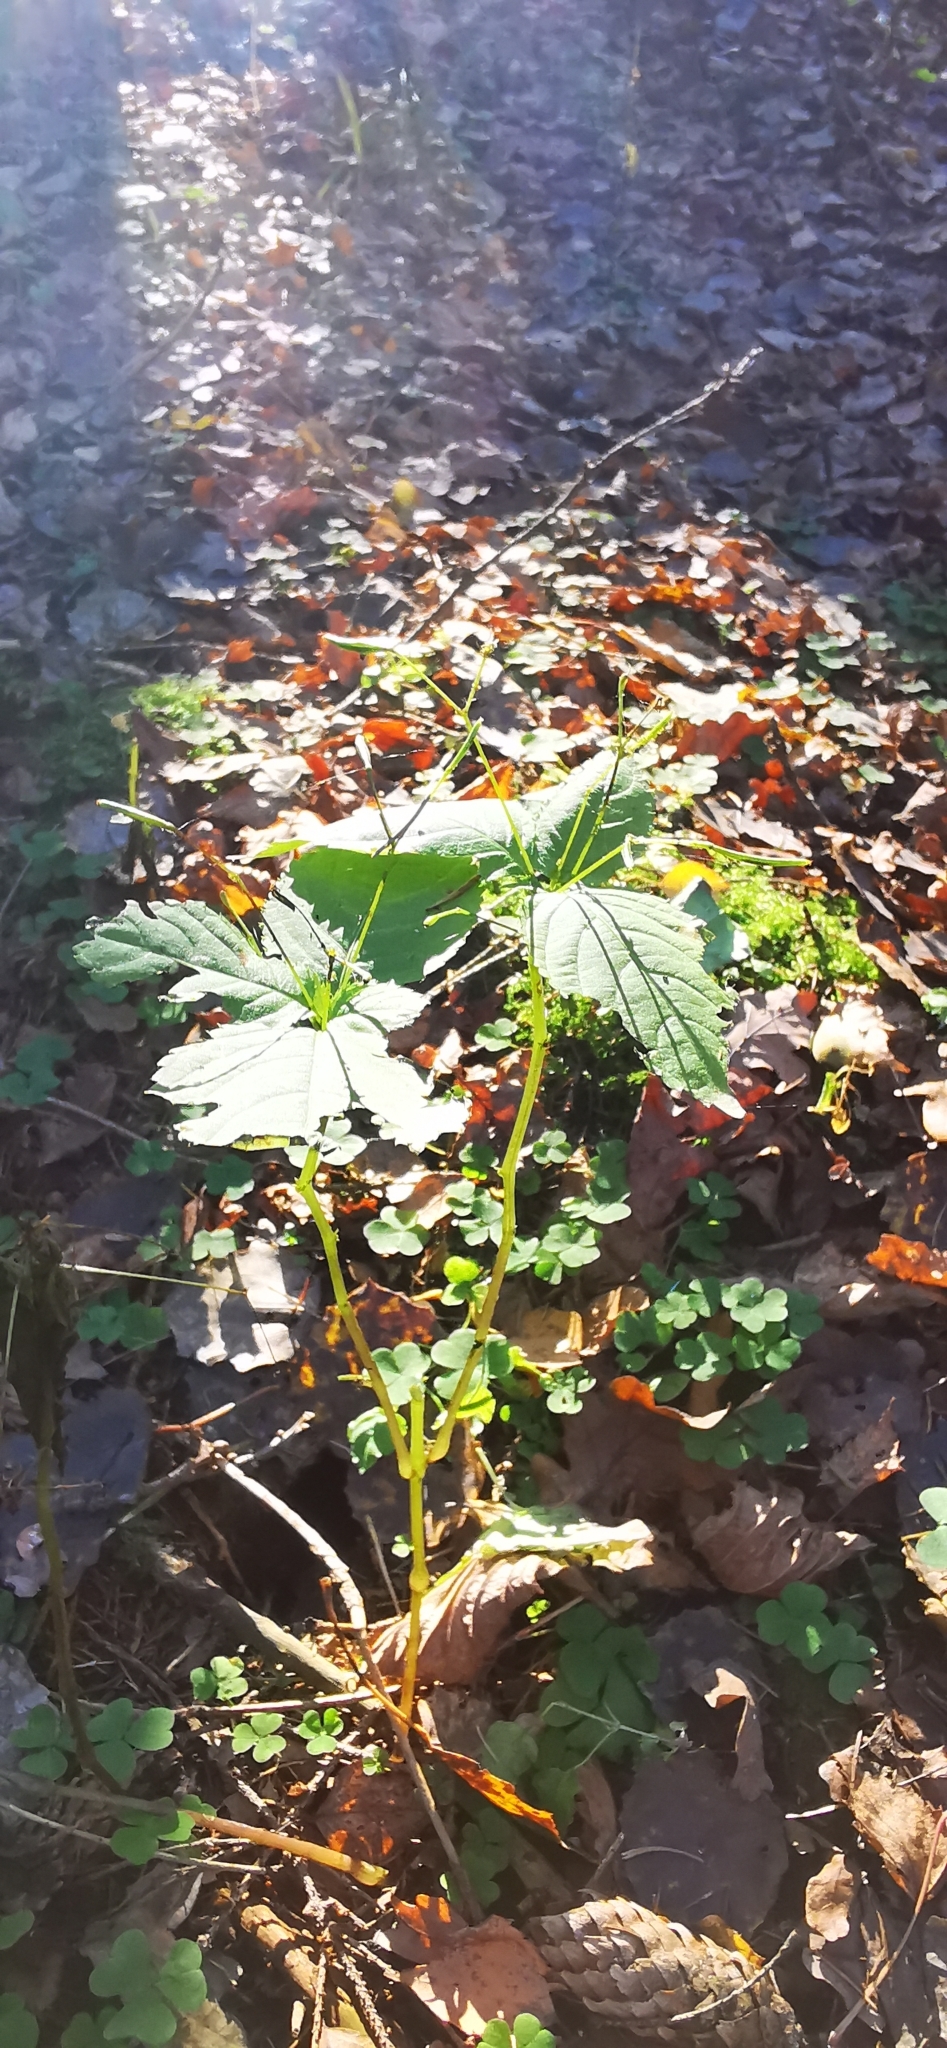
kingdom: Plantae
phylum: Tracheophyta
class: Magnoliopsida
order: Ericales
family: Balsaminaceae
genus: Impatiens
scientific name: Impatiens parviflora
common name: Small balsam
